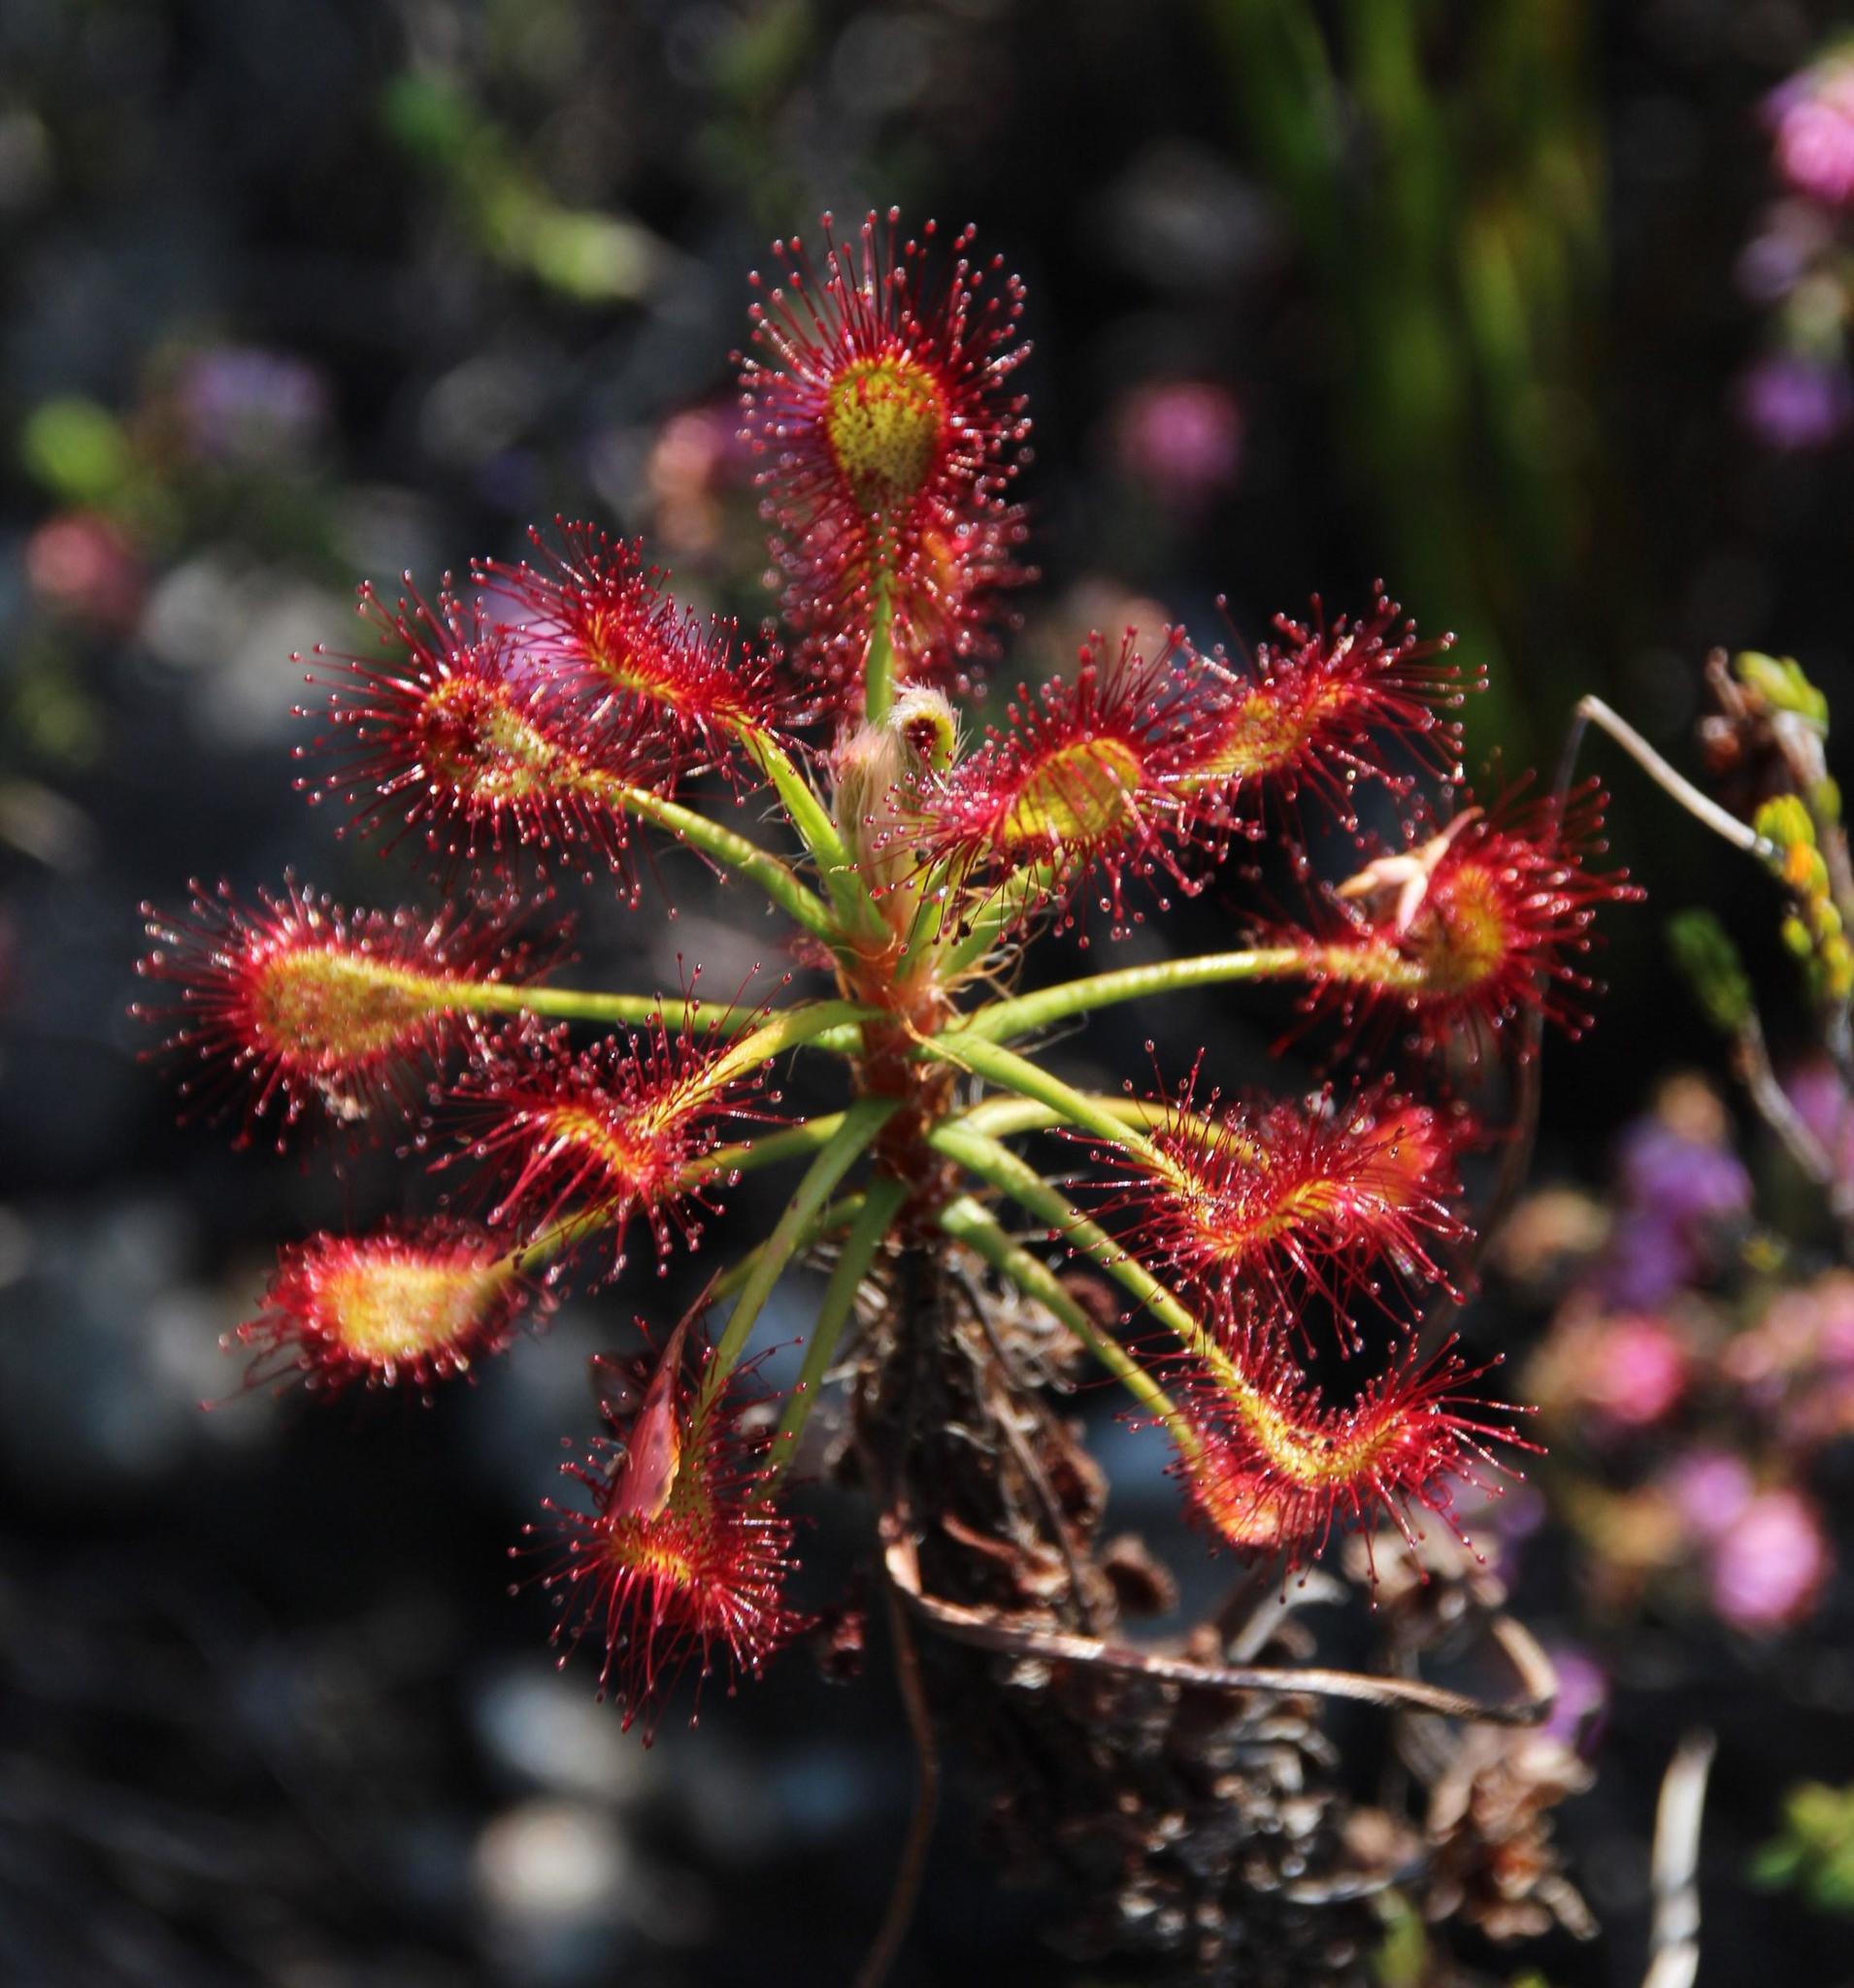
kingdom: Plantae
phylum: Tracheophyta
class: Magnoliopsida
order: Caryophyllales
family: Droseraceae
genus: Drosera
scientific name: Drosera glabripes
